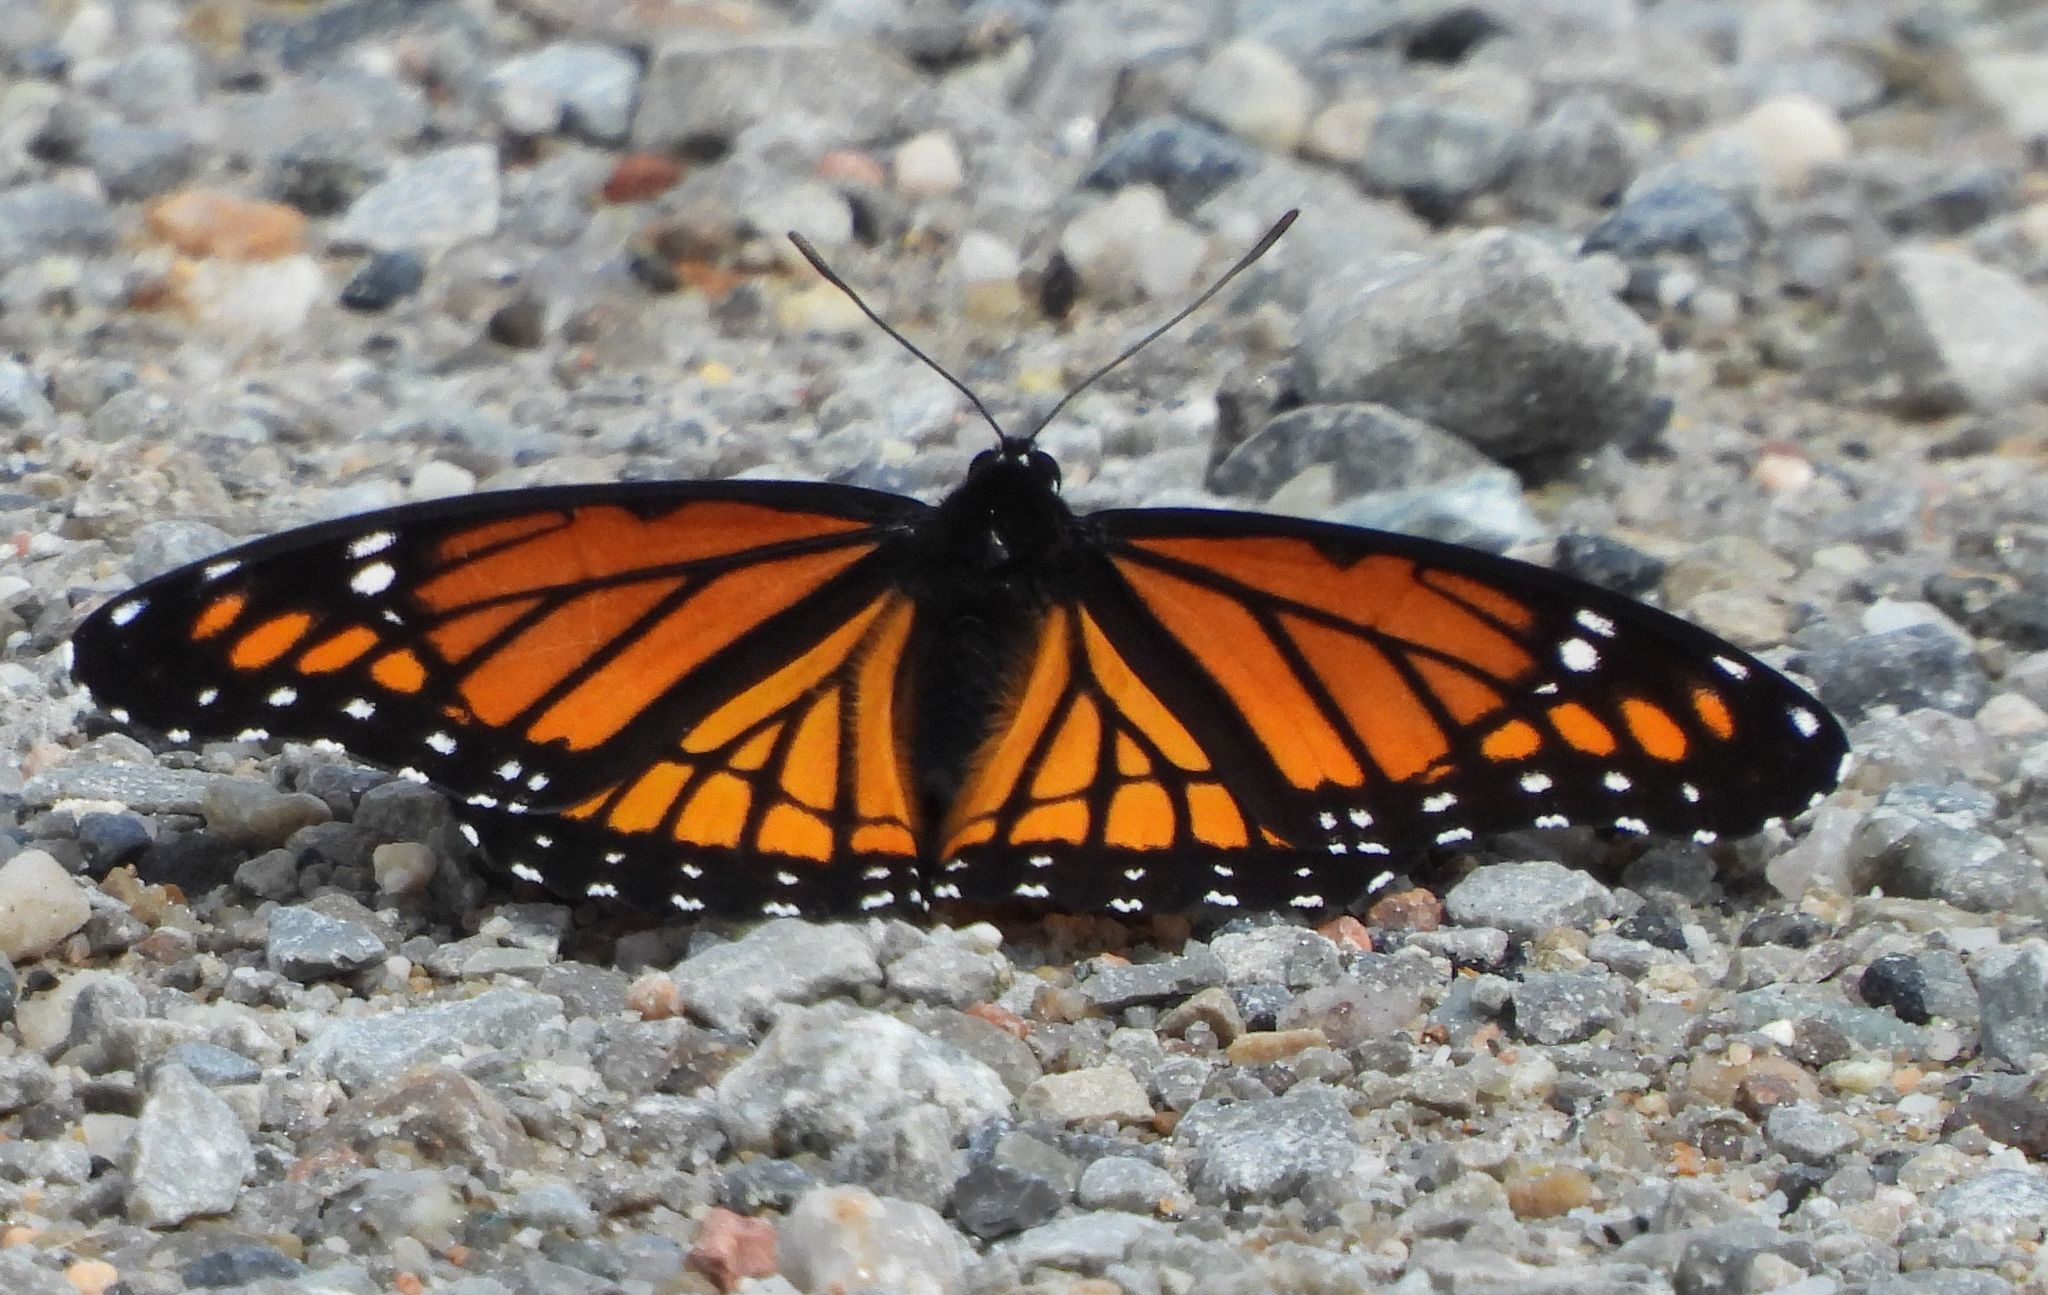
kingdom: Animalia
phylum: Arthropoda
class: Insecta
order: Lepidoptera
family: Nymphalidae
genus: Limenitis
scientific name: Limenitis archippus
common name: Viceroy
